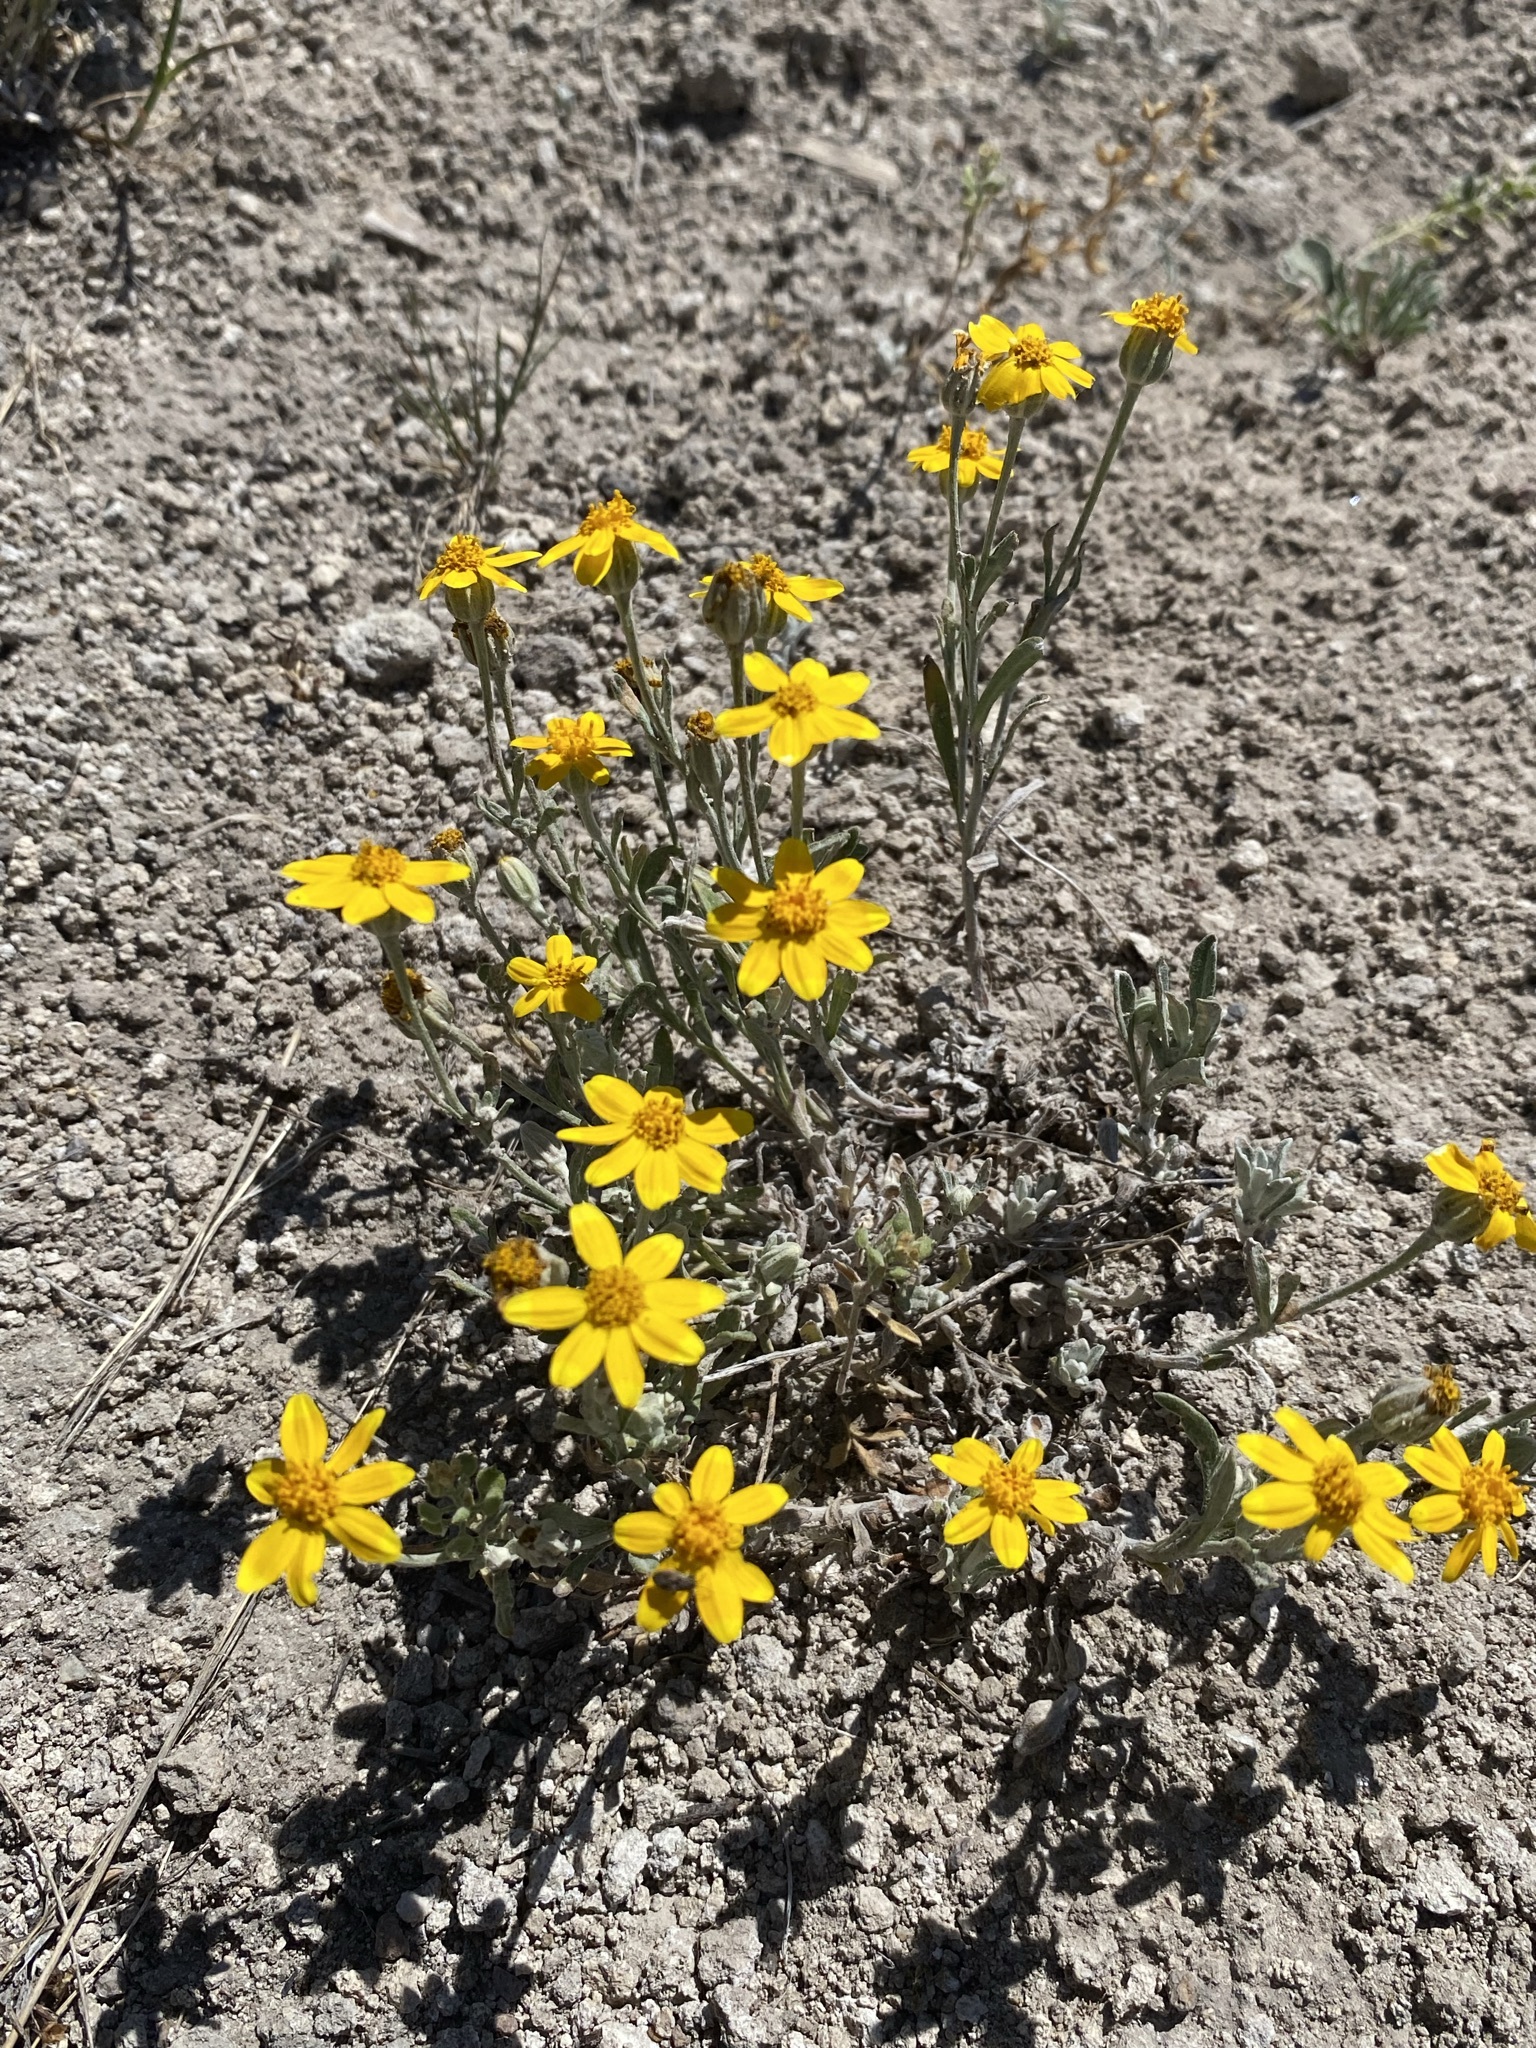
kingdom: Plantae
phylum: Tracheophyta
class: Magnoliopsida
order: Asterales
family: Asteraceae
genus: Eriophyllum
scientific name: Eriophyllum lanatum
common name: Common woolly-sunflower
